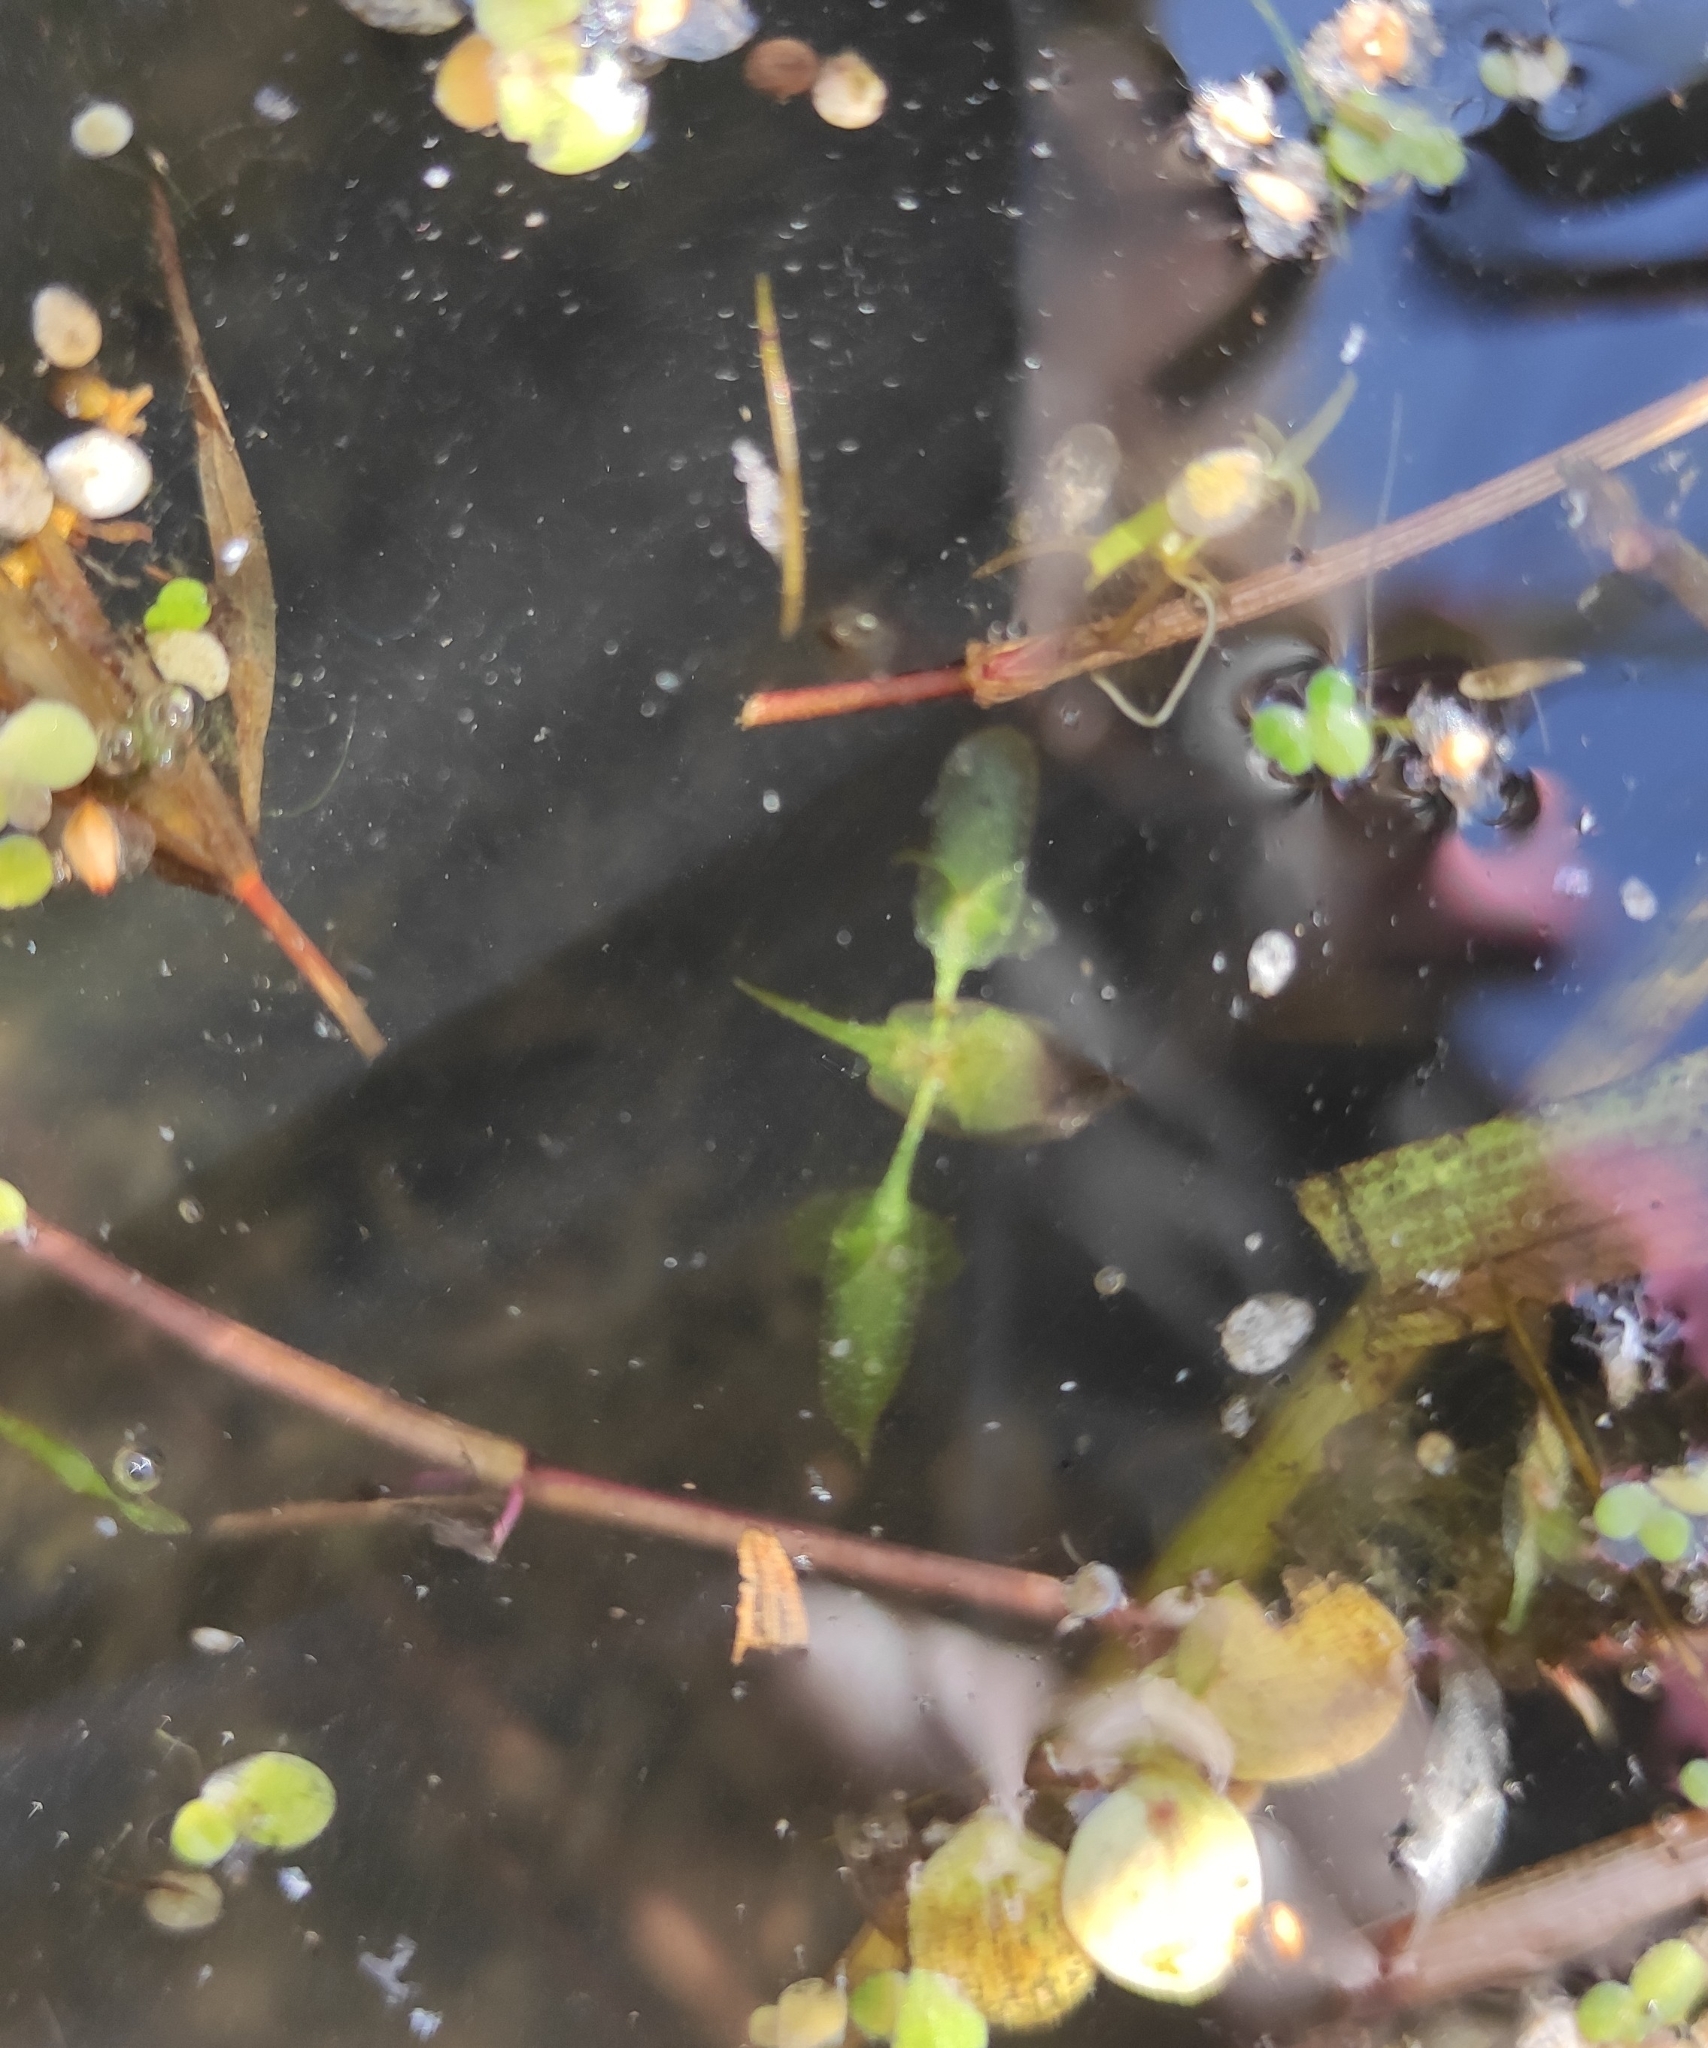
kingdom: Plantae
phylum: Tracheophyta
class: Liliopsida
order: Alismatales
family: Araceae
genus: Lemna
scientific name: Lemna trisulca
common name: Ivy-leaved duckweed
